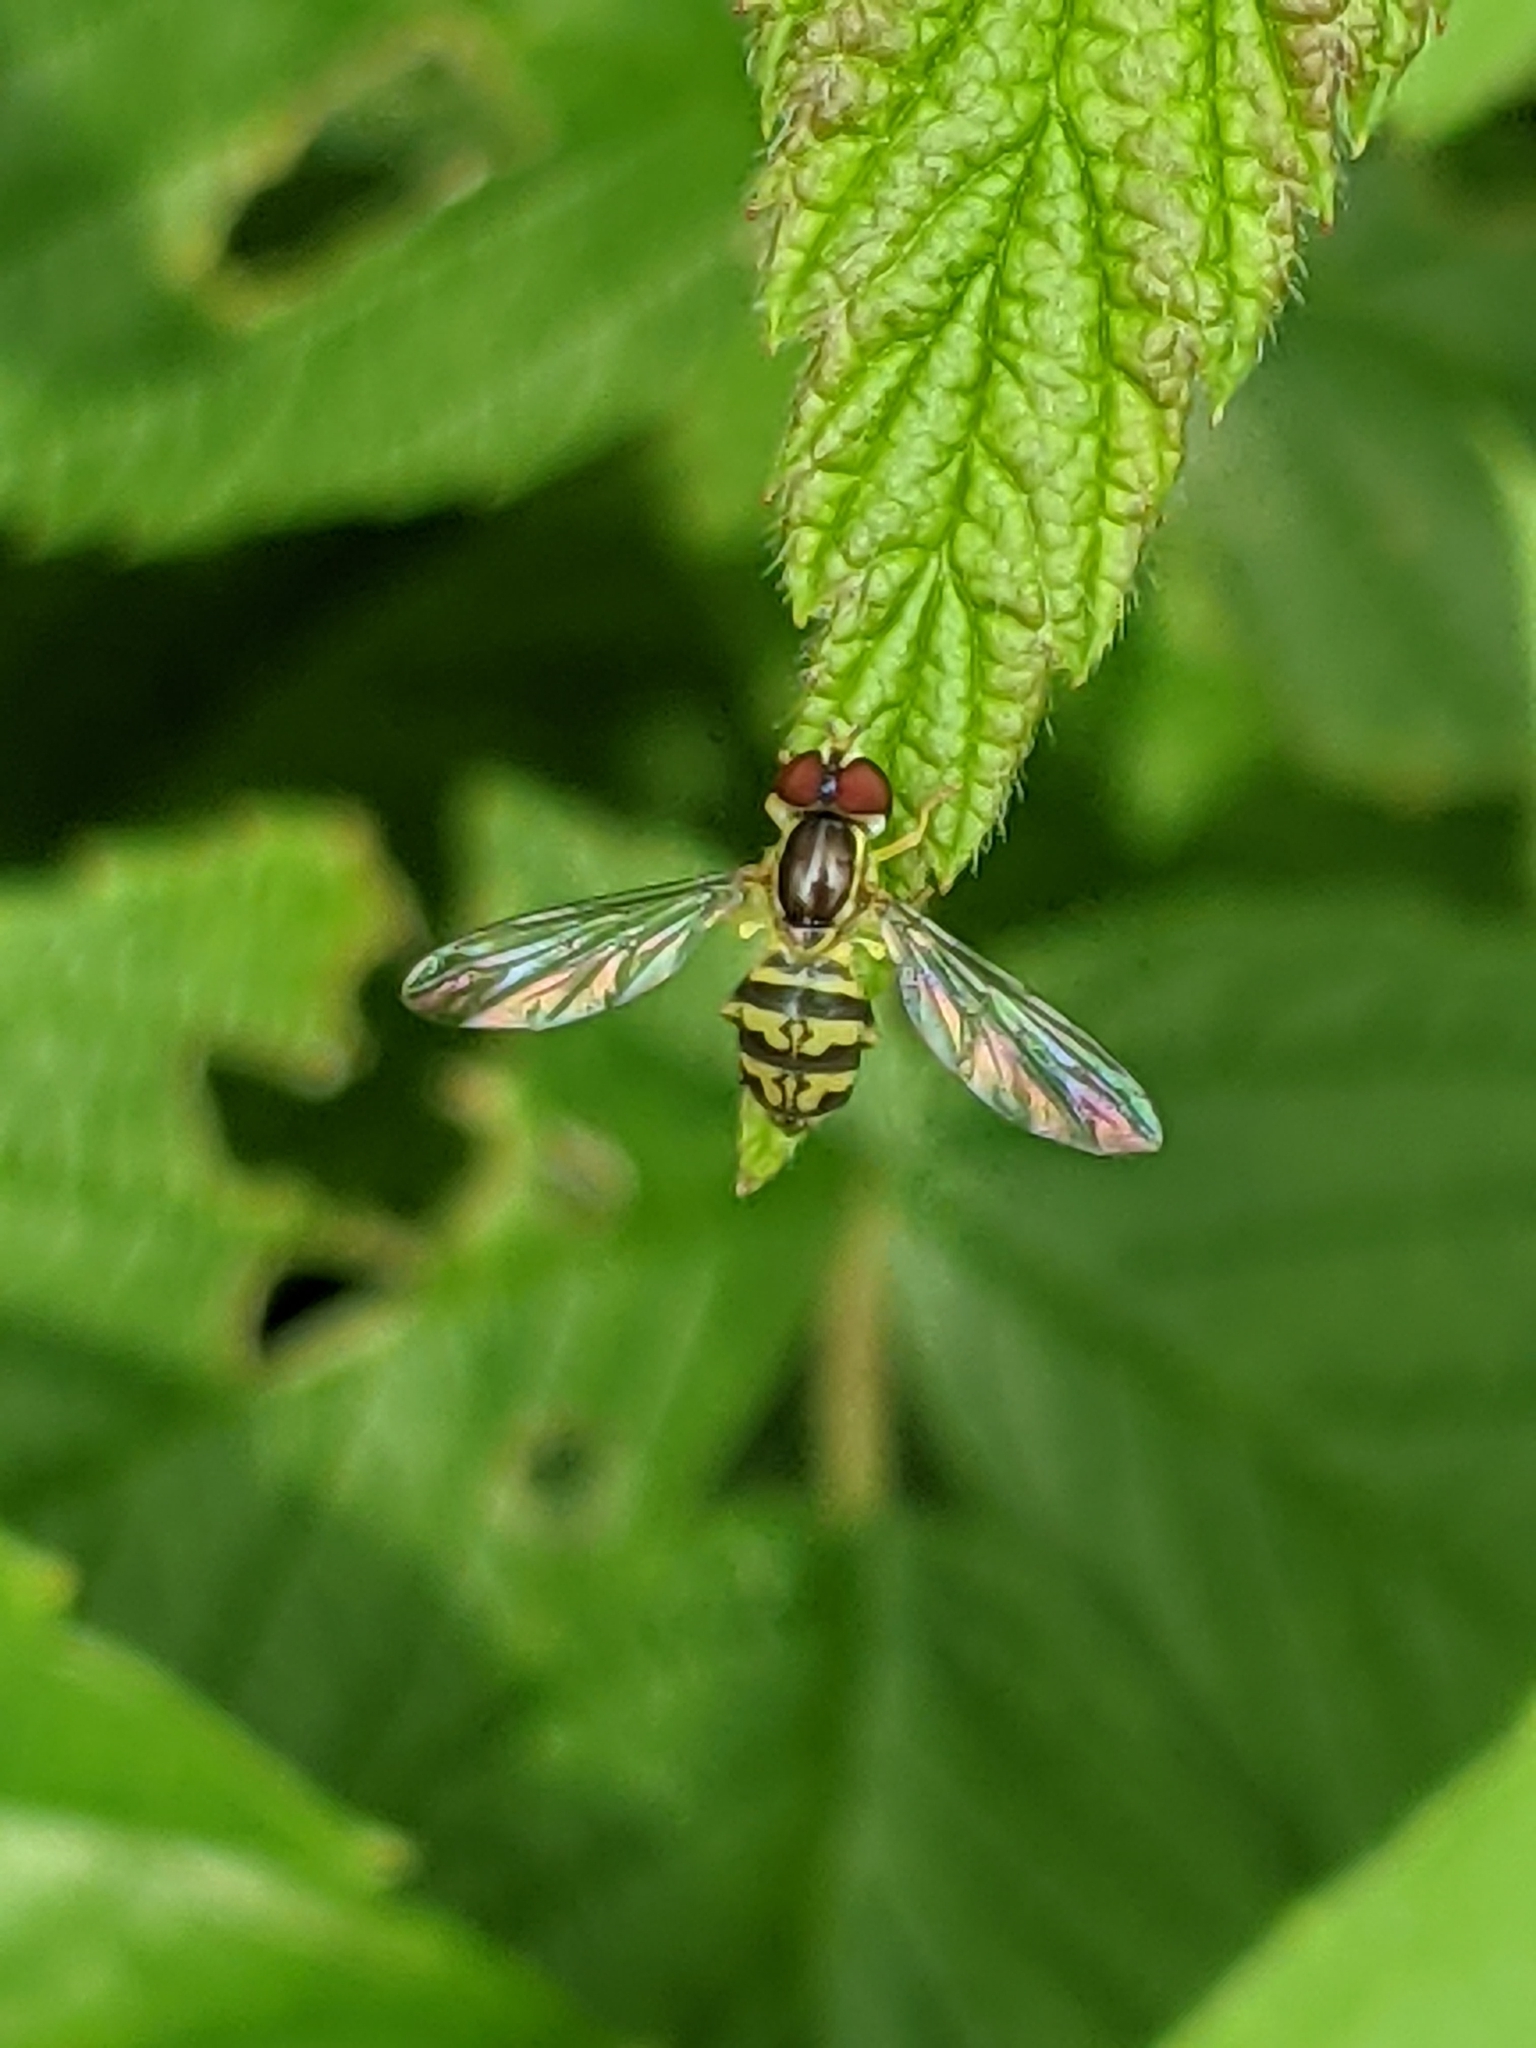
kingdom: Animalia
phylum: Arthropoda
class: Insecta
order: Diptera
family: Syrphidae
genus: Toxomerus
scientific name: Toxomerus geminatus
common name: Eastern calligrapher
